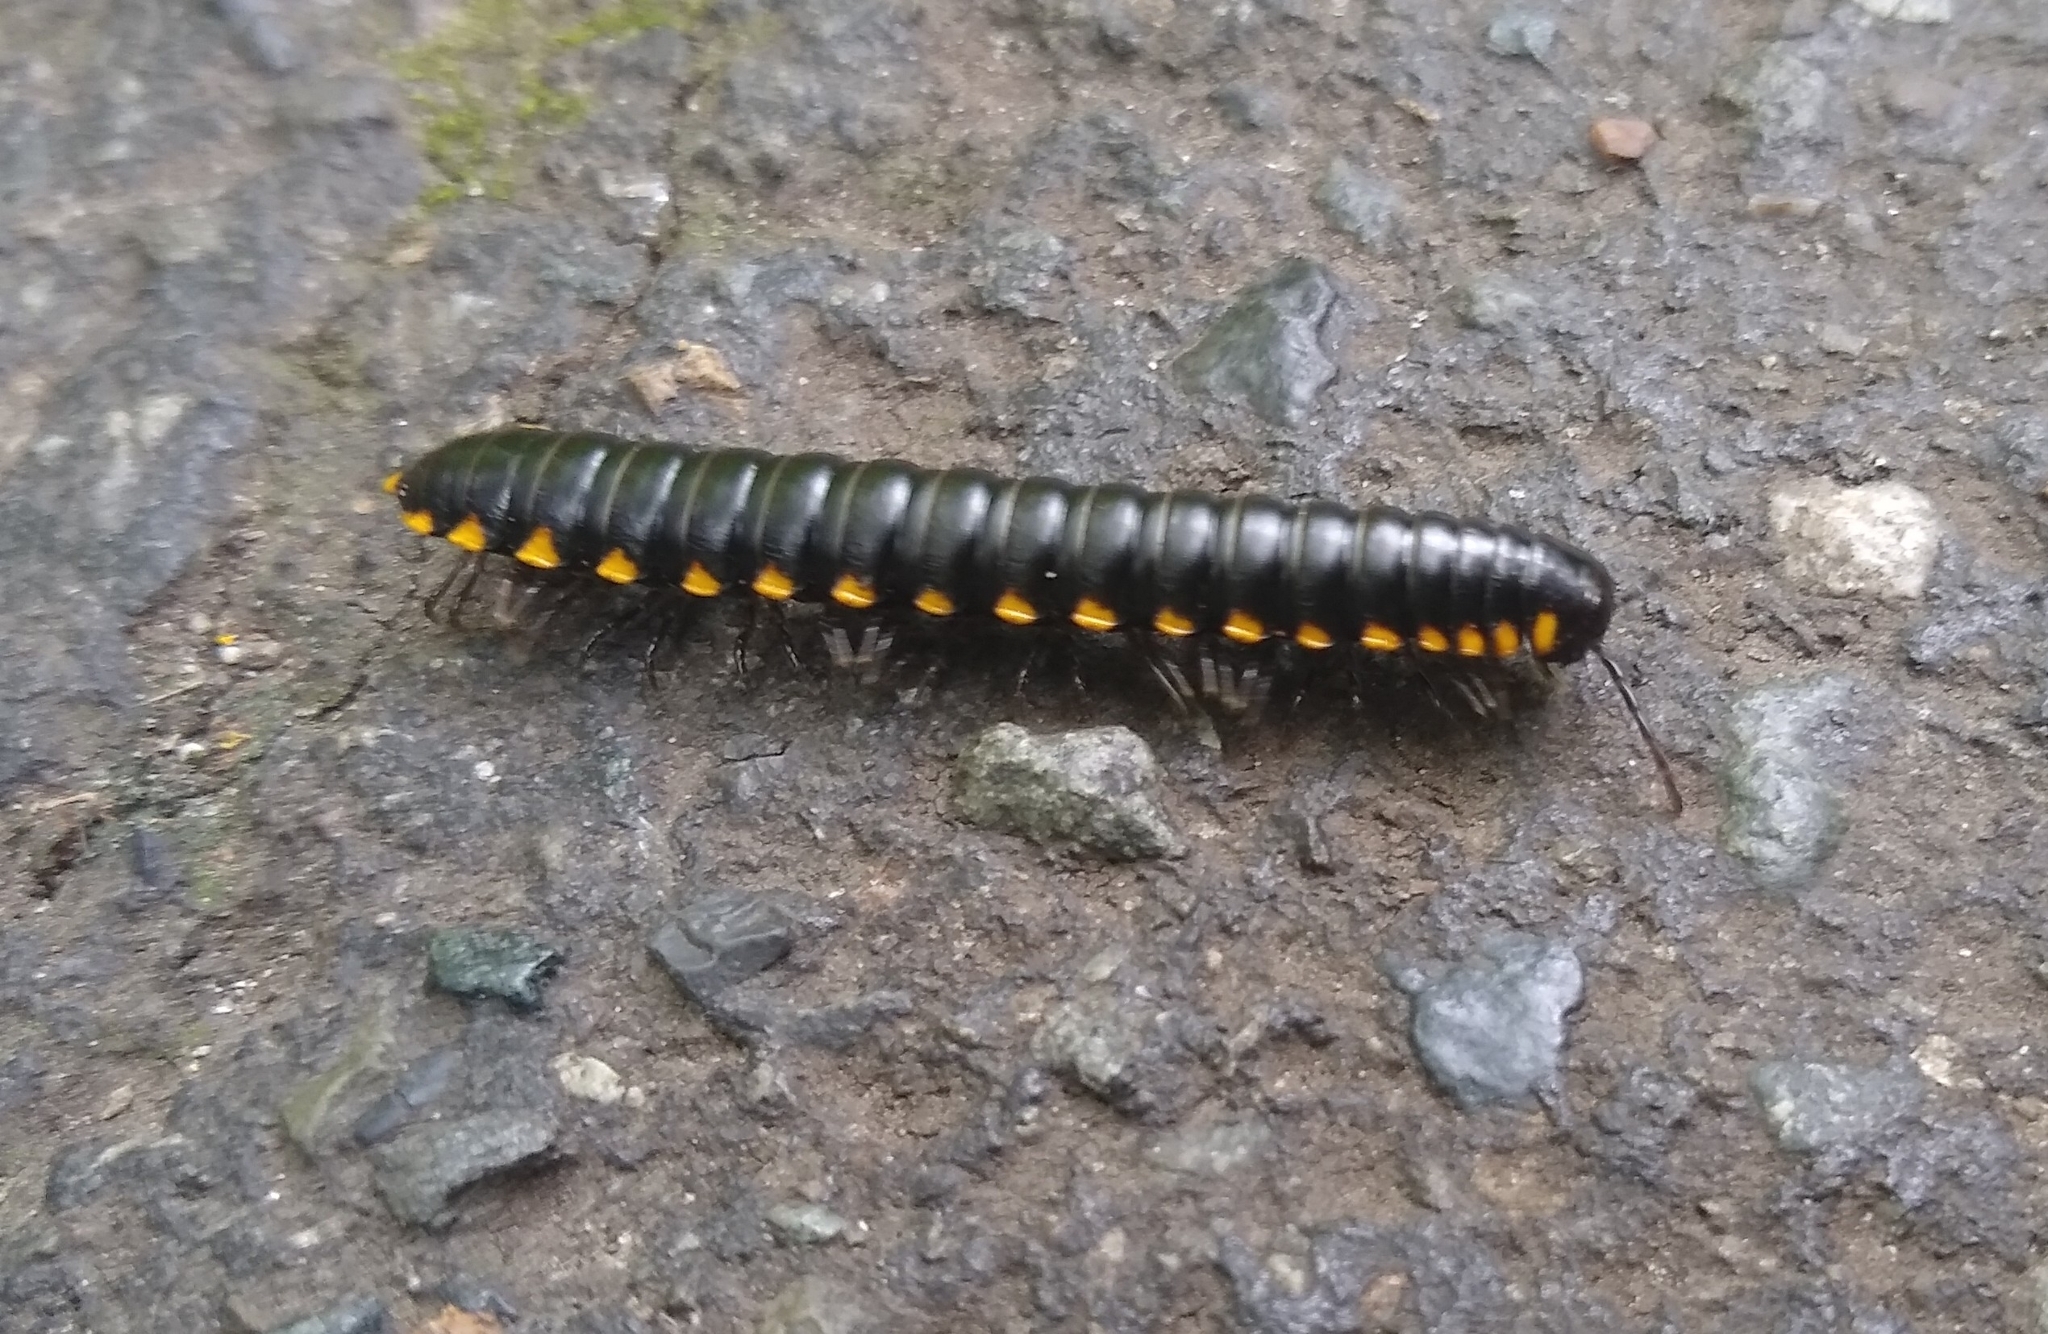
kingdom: Animalia
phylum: Arthropoda
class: Diplopoda
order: Polydesmida
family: Xystodesmidae
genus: Harpaphe
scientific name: Harpaphe haydeniana
